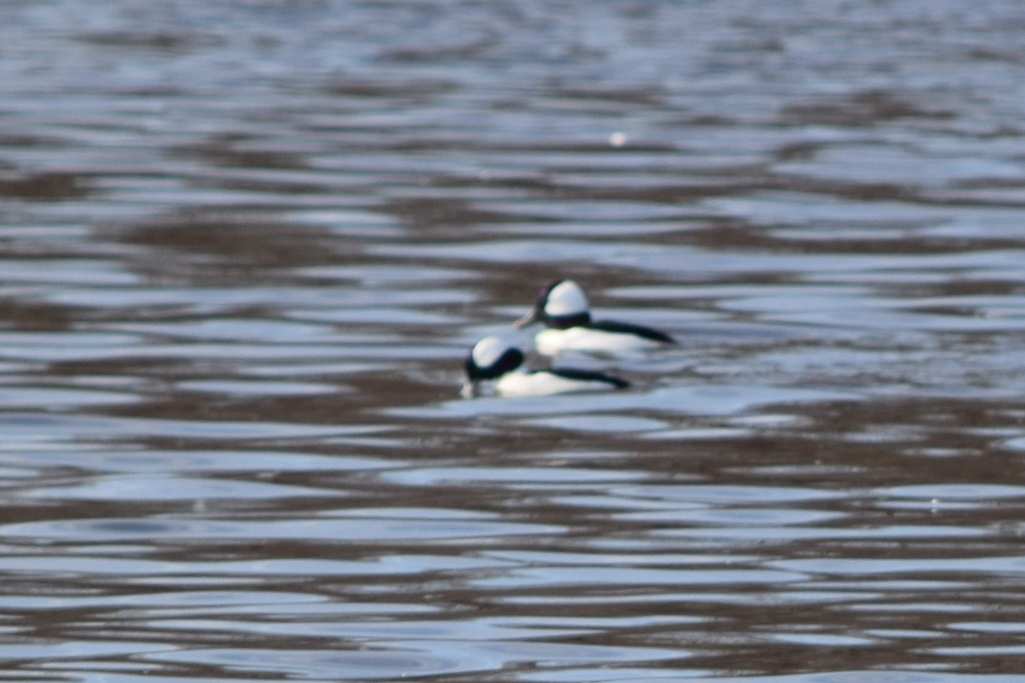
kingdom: Animalia
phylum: Chordata
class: Aves
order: Anseriformes
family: Anatidae
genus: Bucephala
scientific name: Bucephala albeola
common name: Bufflehead
